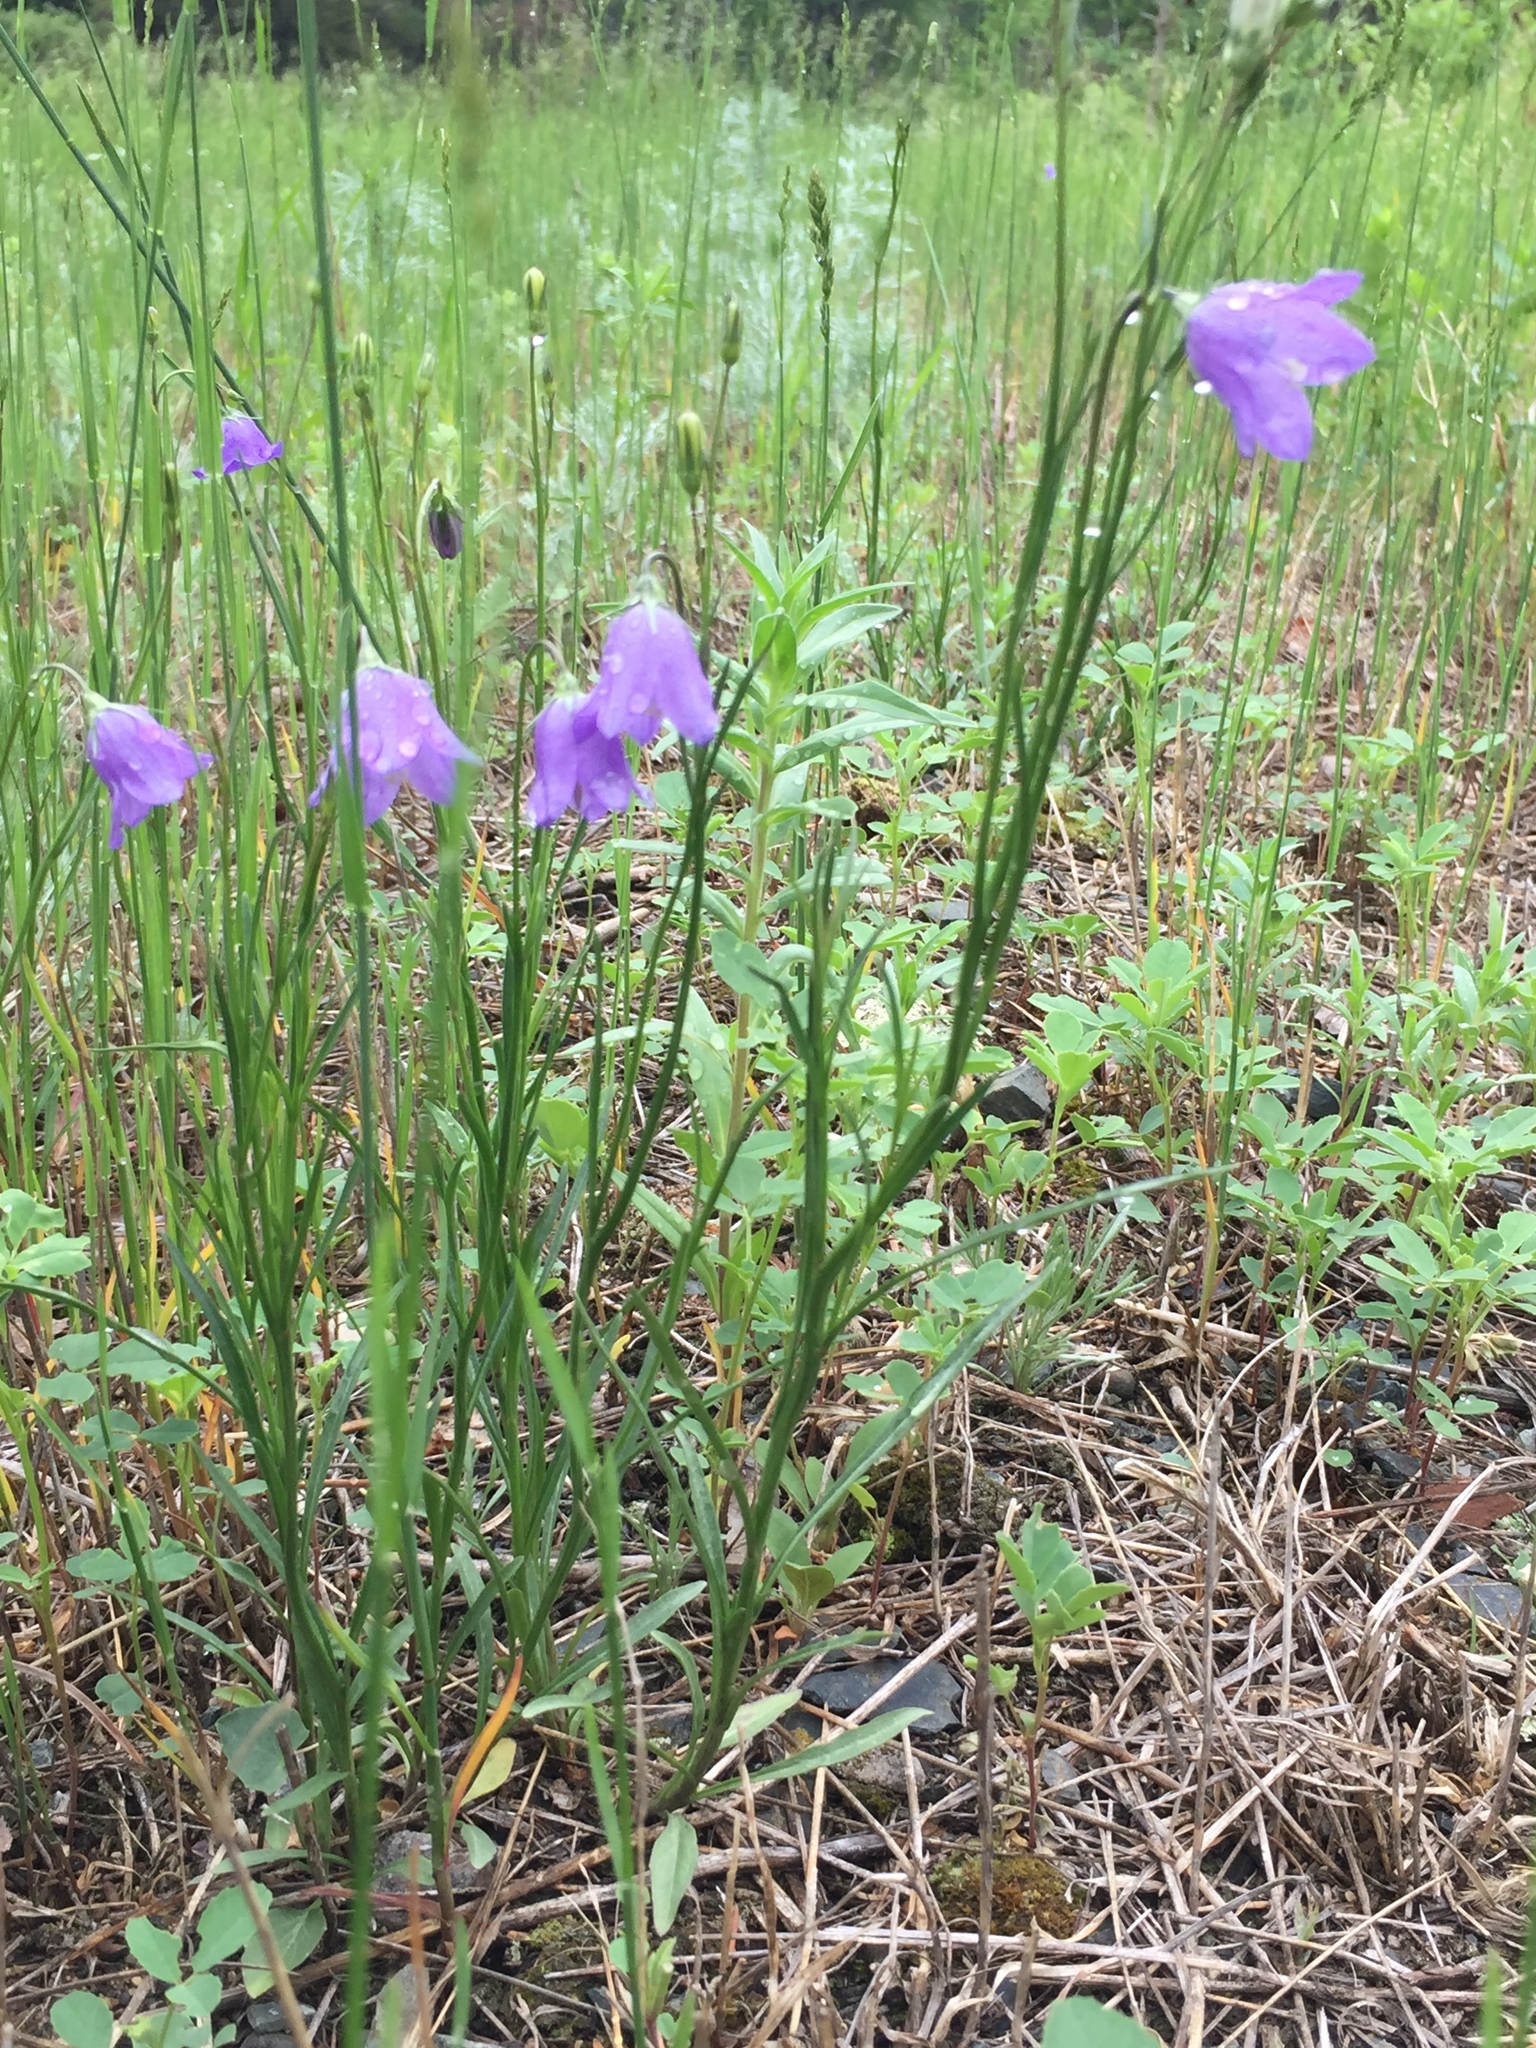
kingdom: Plantae
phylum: Tracheophyta
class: Magnoliopsida
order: Asterales
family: Campanulaceae
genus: Campanula
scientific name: Campanula petiolata
